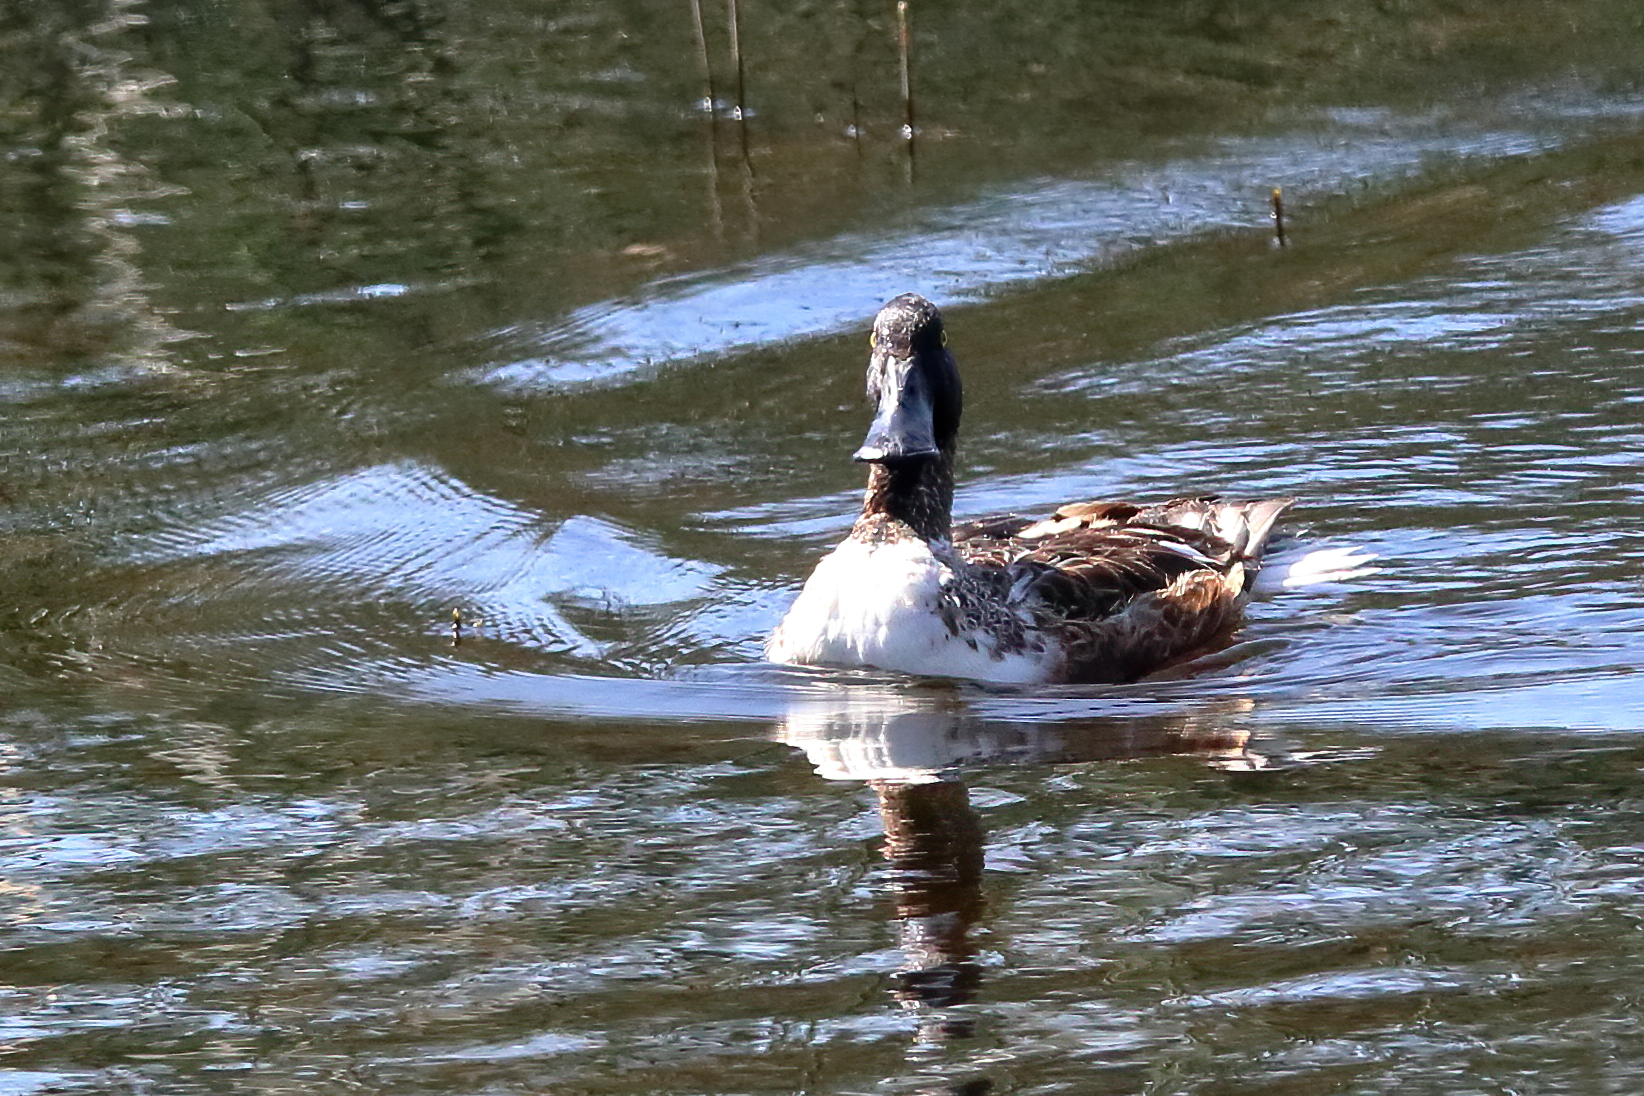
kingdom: Animalia
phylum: Chordata
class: Aves
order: Anseriformes
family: Anatidae
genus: Spatula
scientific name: Spatula clypeata
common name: Northern shoveler
